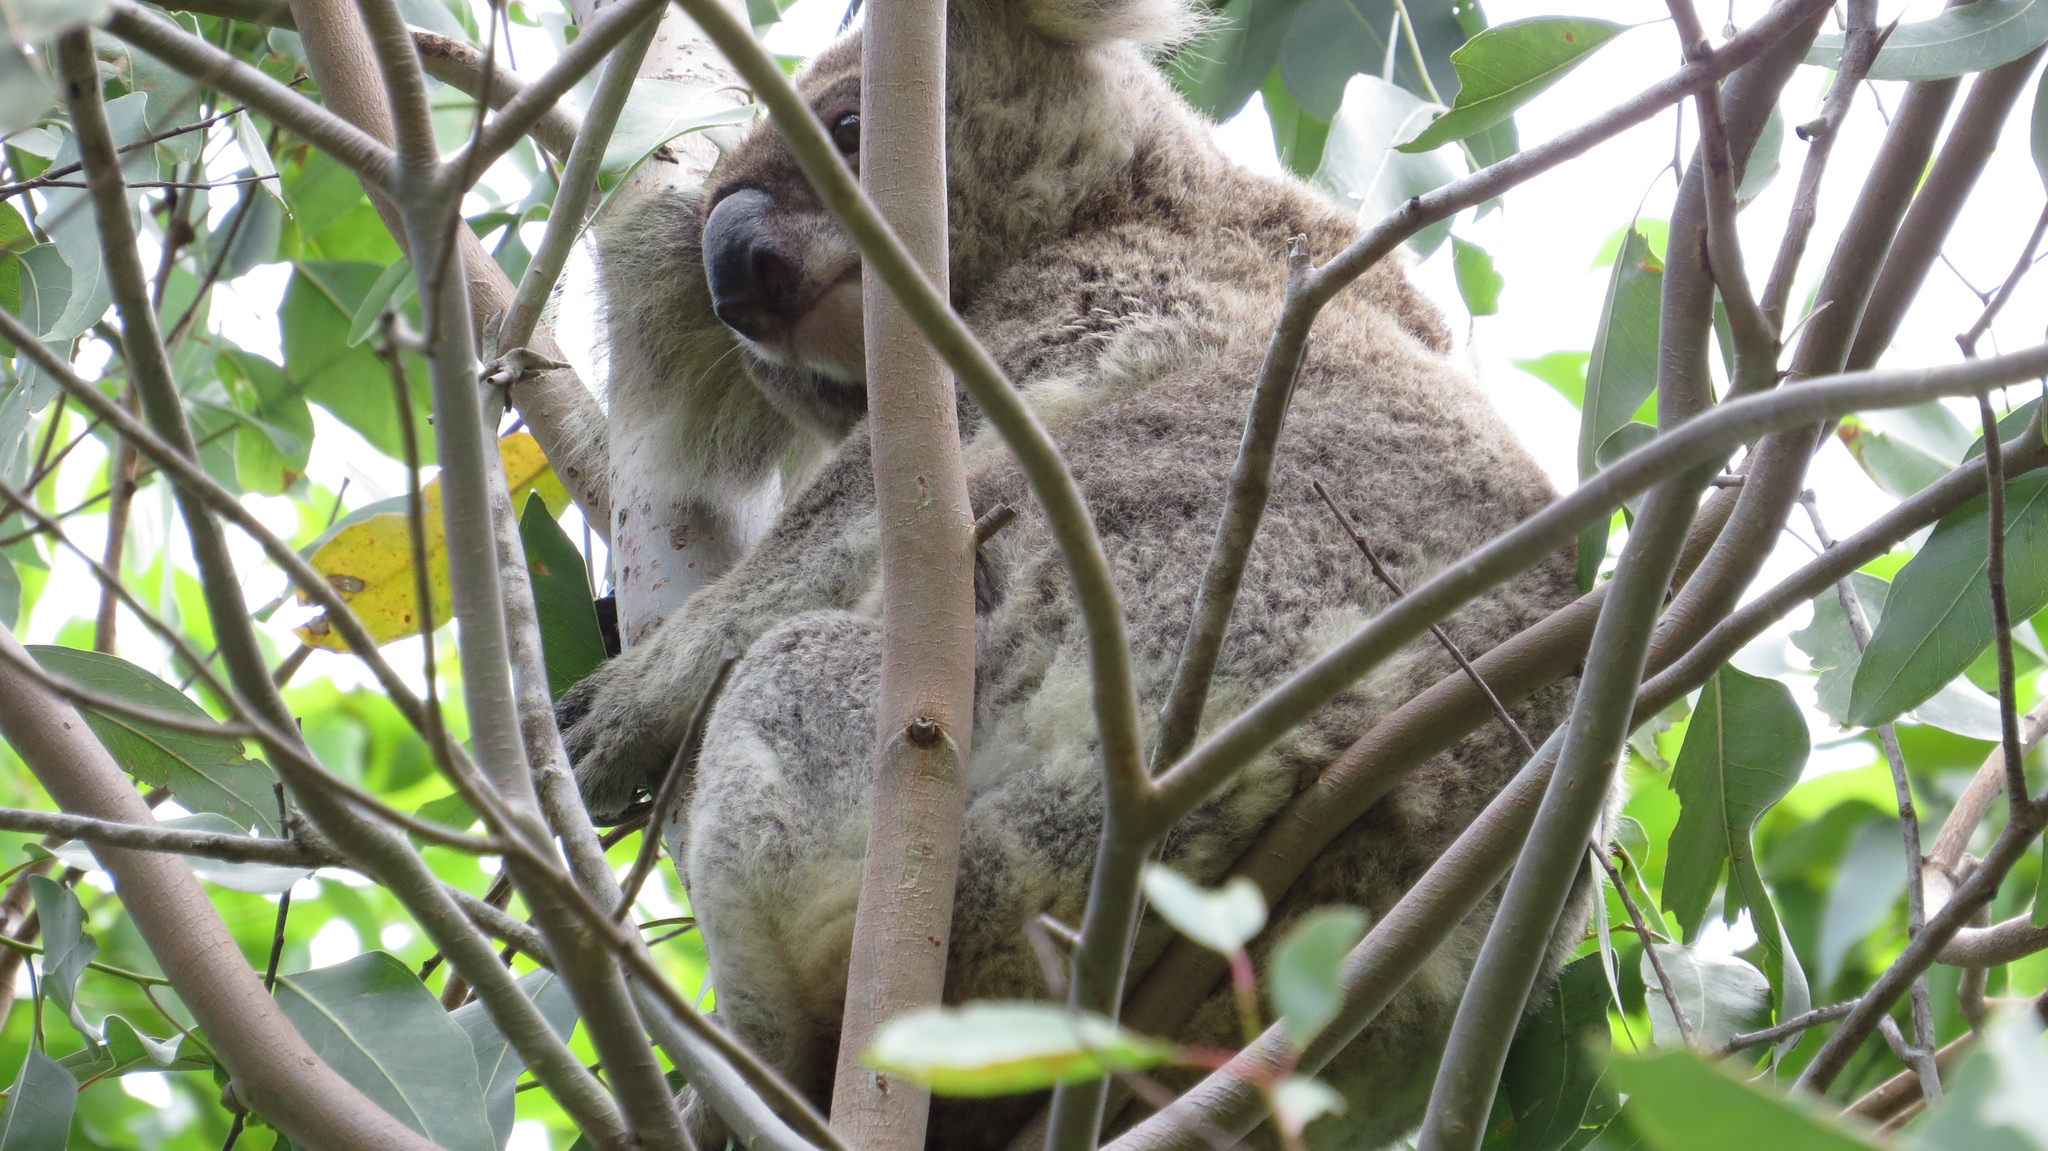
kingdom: Animalia
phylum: Chordata
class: Mammalia
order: Diprotodontia
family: Phascolarctidae
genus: Phascolarctos
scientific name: Phascolarctos cinereus
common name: Koala
